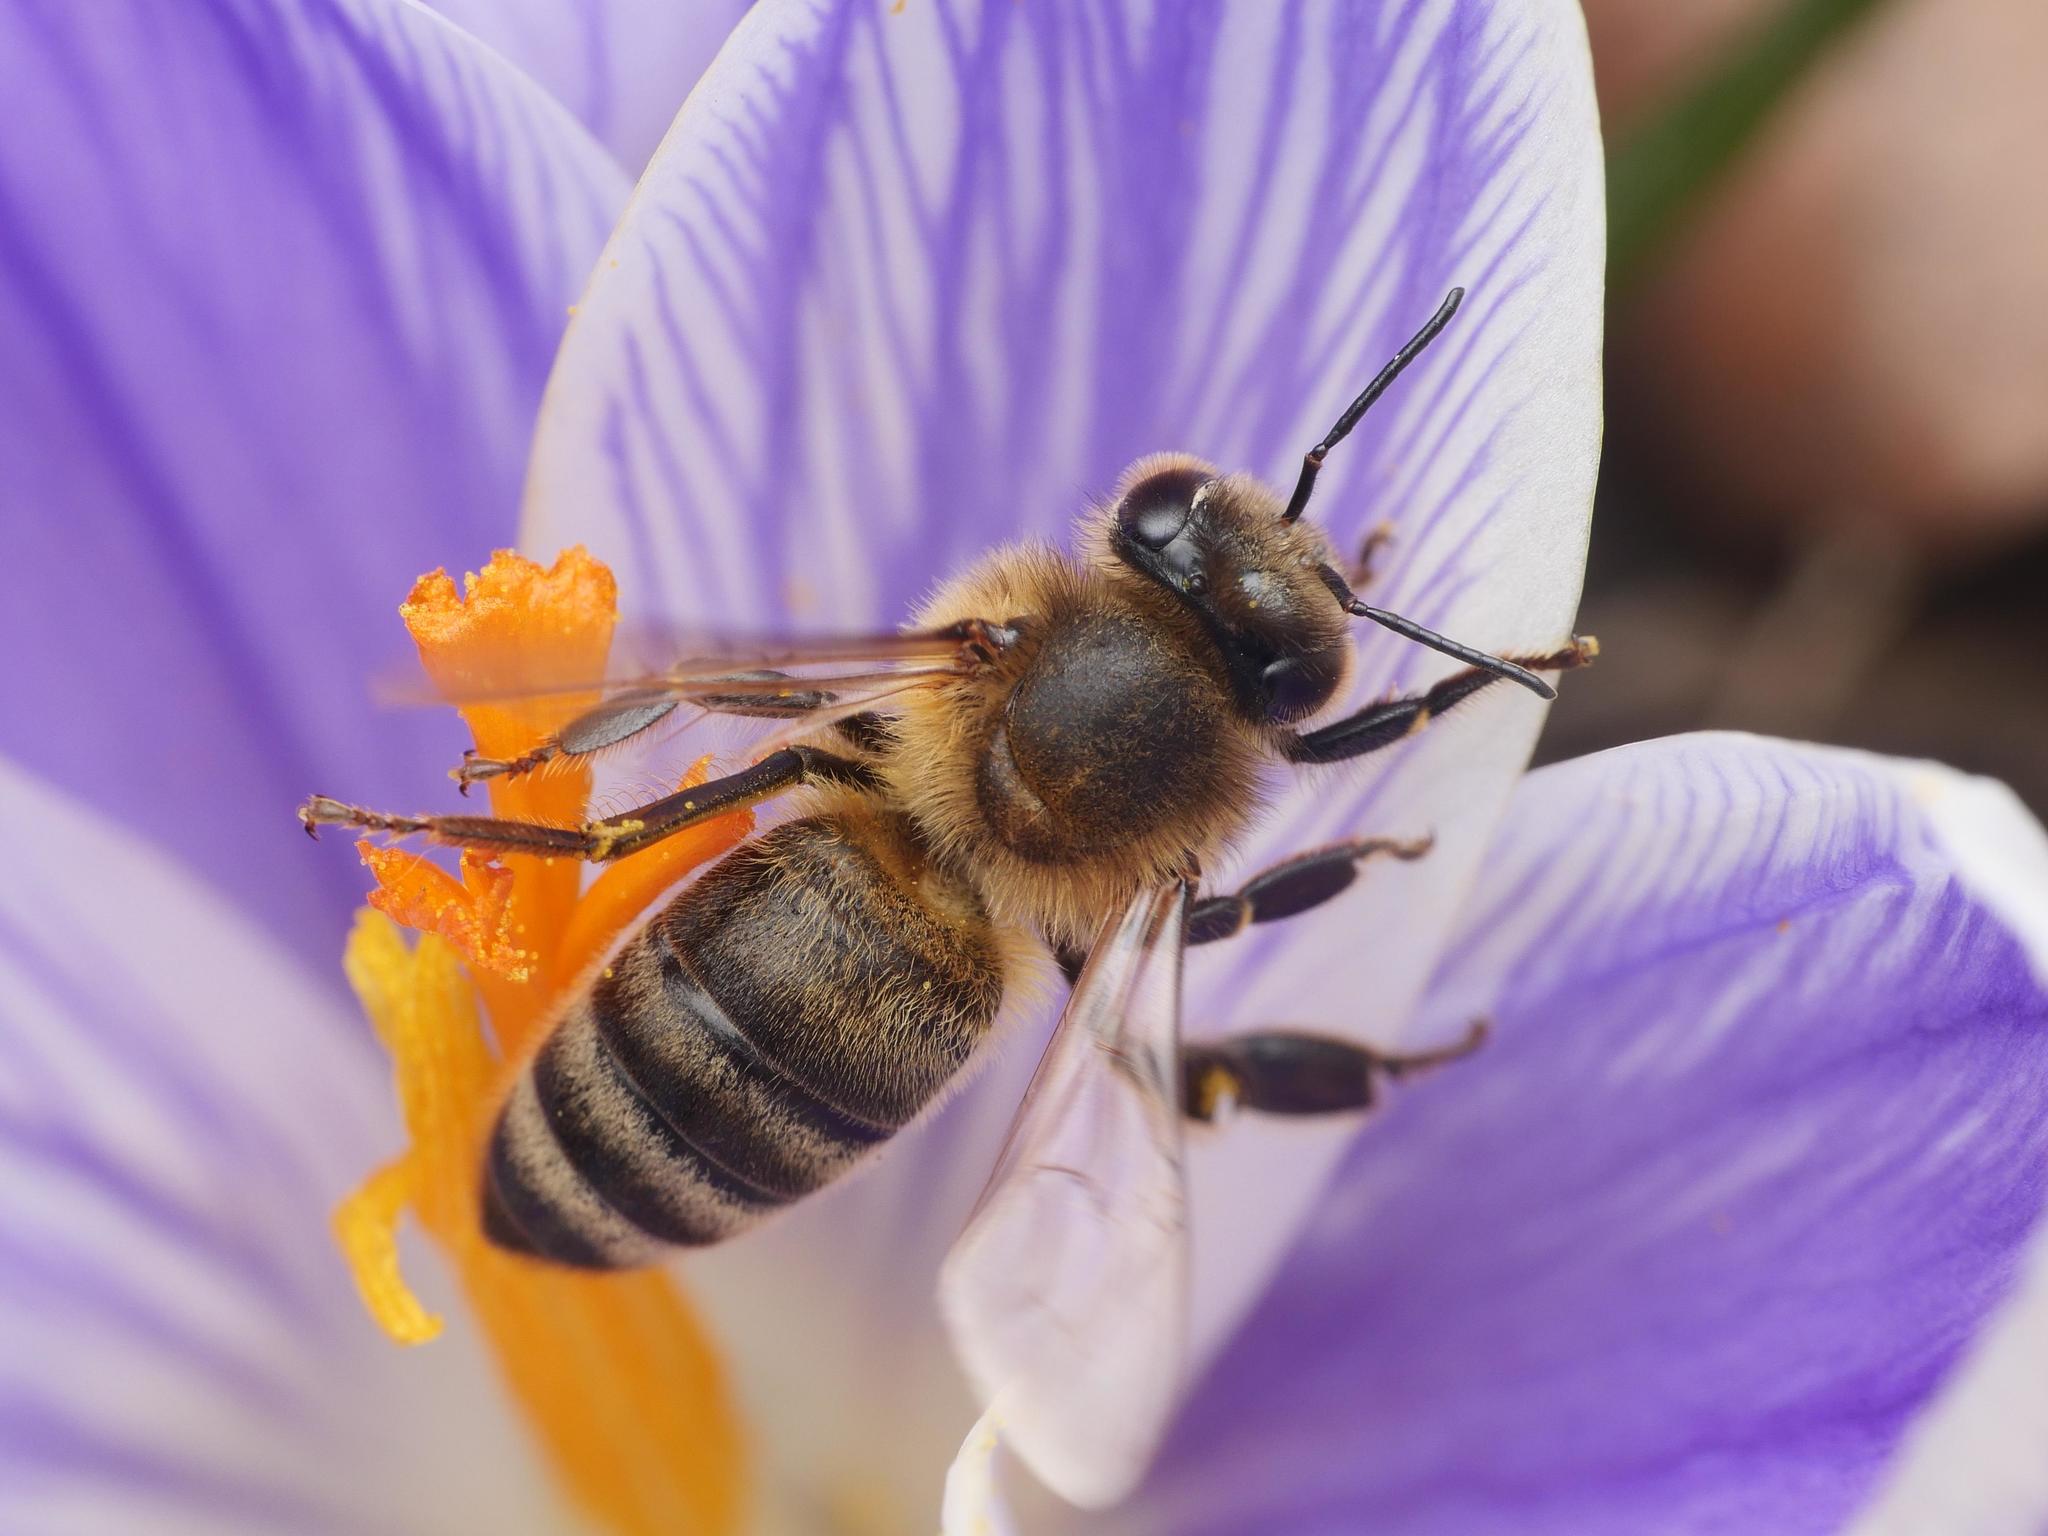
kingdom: Animalia
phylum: Arthropoda
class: Insecta
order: Hymenoptera
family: Apidae
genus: Apis
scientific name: Apis mellifera
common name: Honey bee
